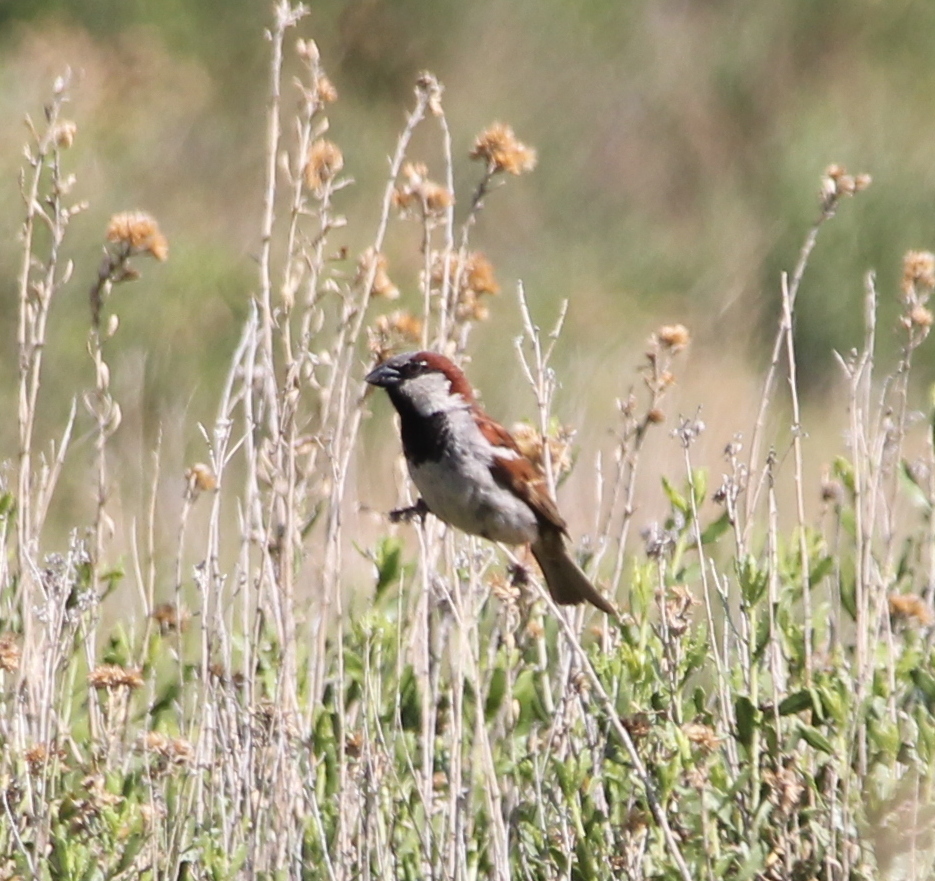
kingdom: Animalia
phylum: Chordata
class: Aves
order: Passeriformes
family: Passeridae
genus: Passer
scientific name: Passer domesticus
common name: House sparrow
